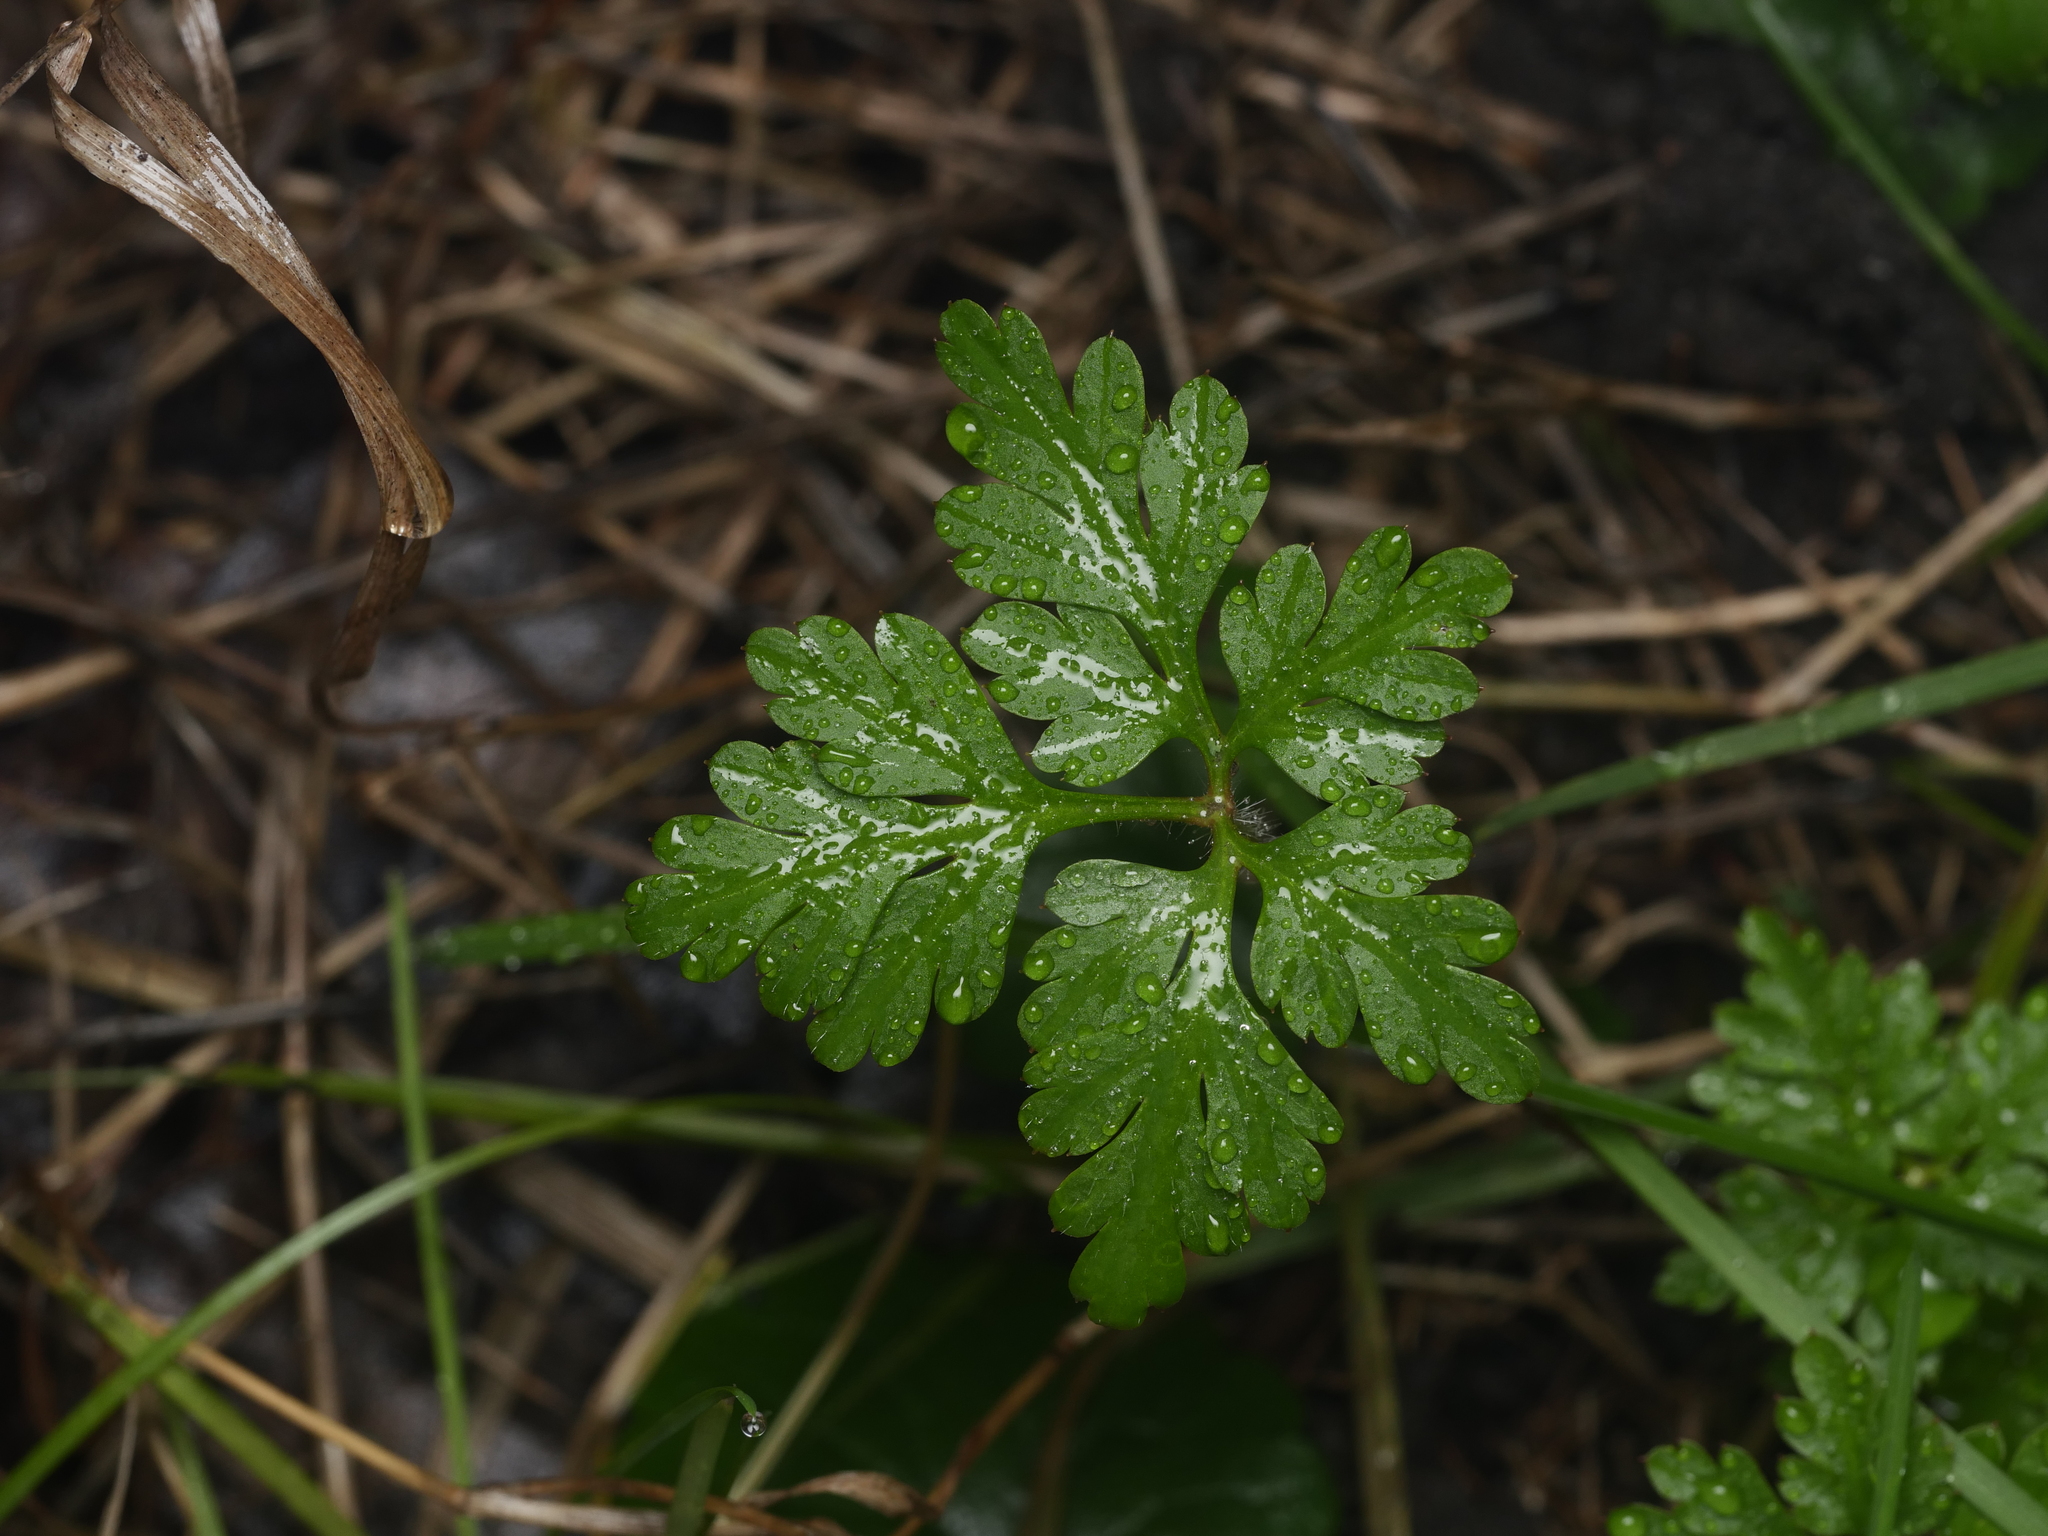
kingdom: Plantae
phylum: Tracheophyta
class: Magnoliopsida
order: Geraniales
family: Geraniaceae
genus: Geranium
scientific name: Geranium robertianum
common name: Herb-robert
